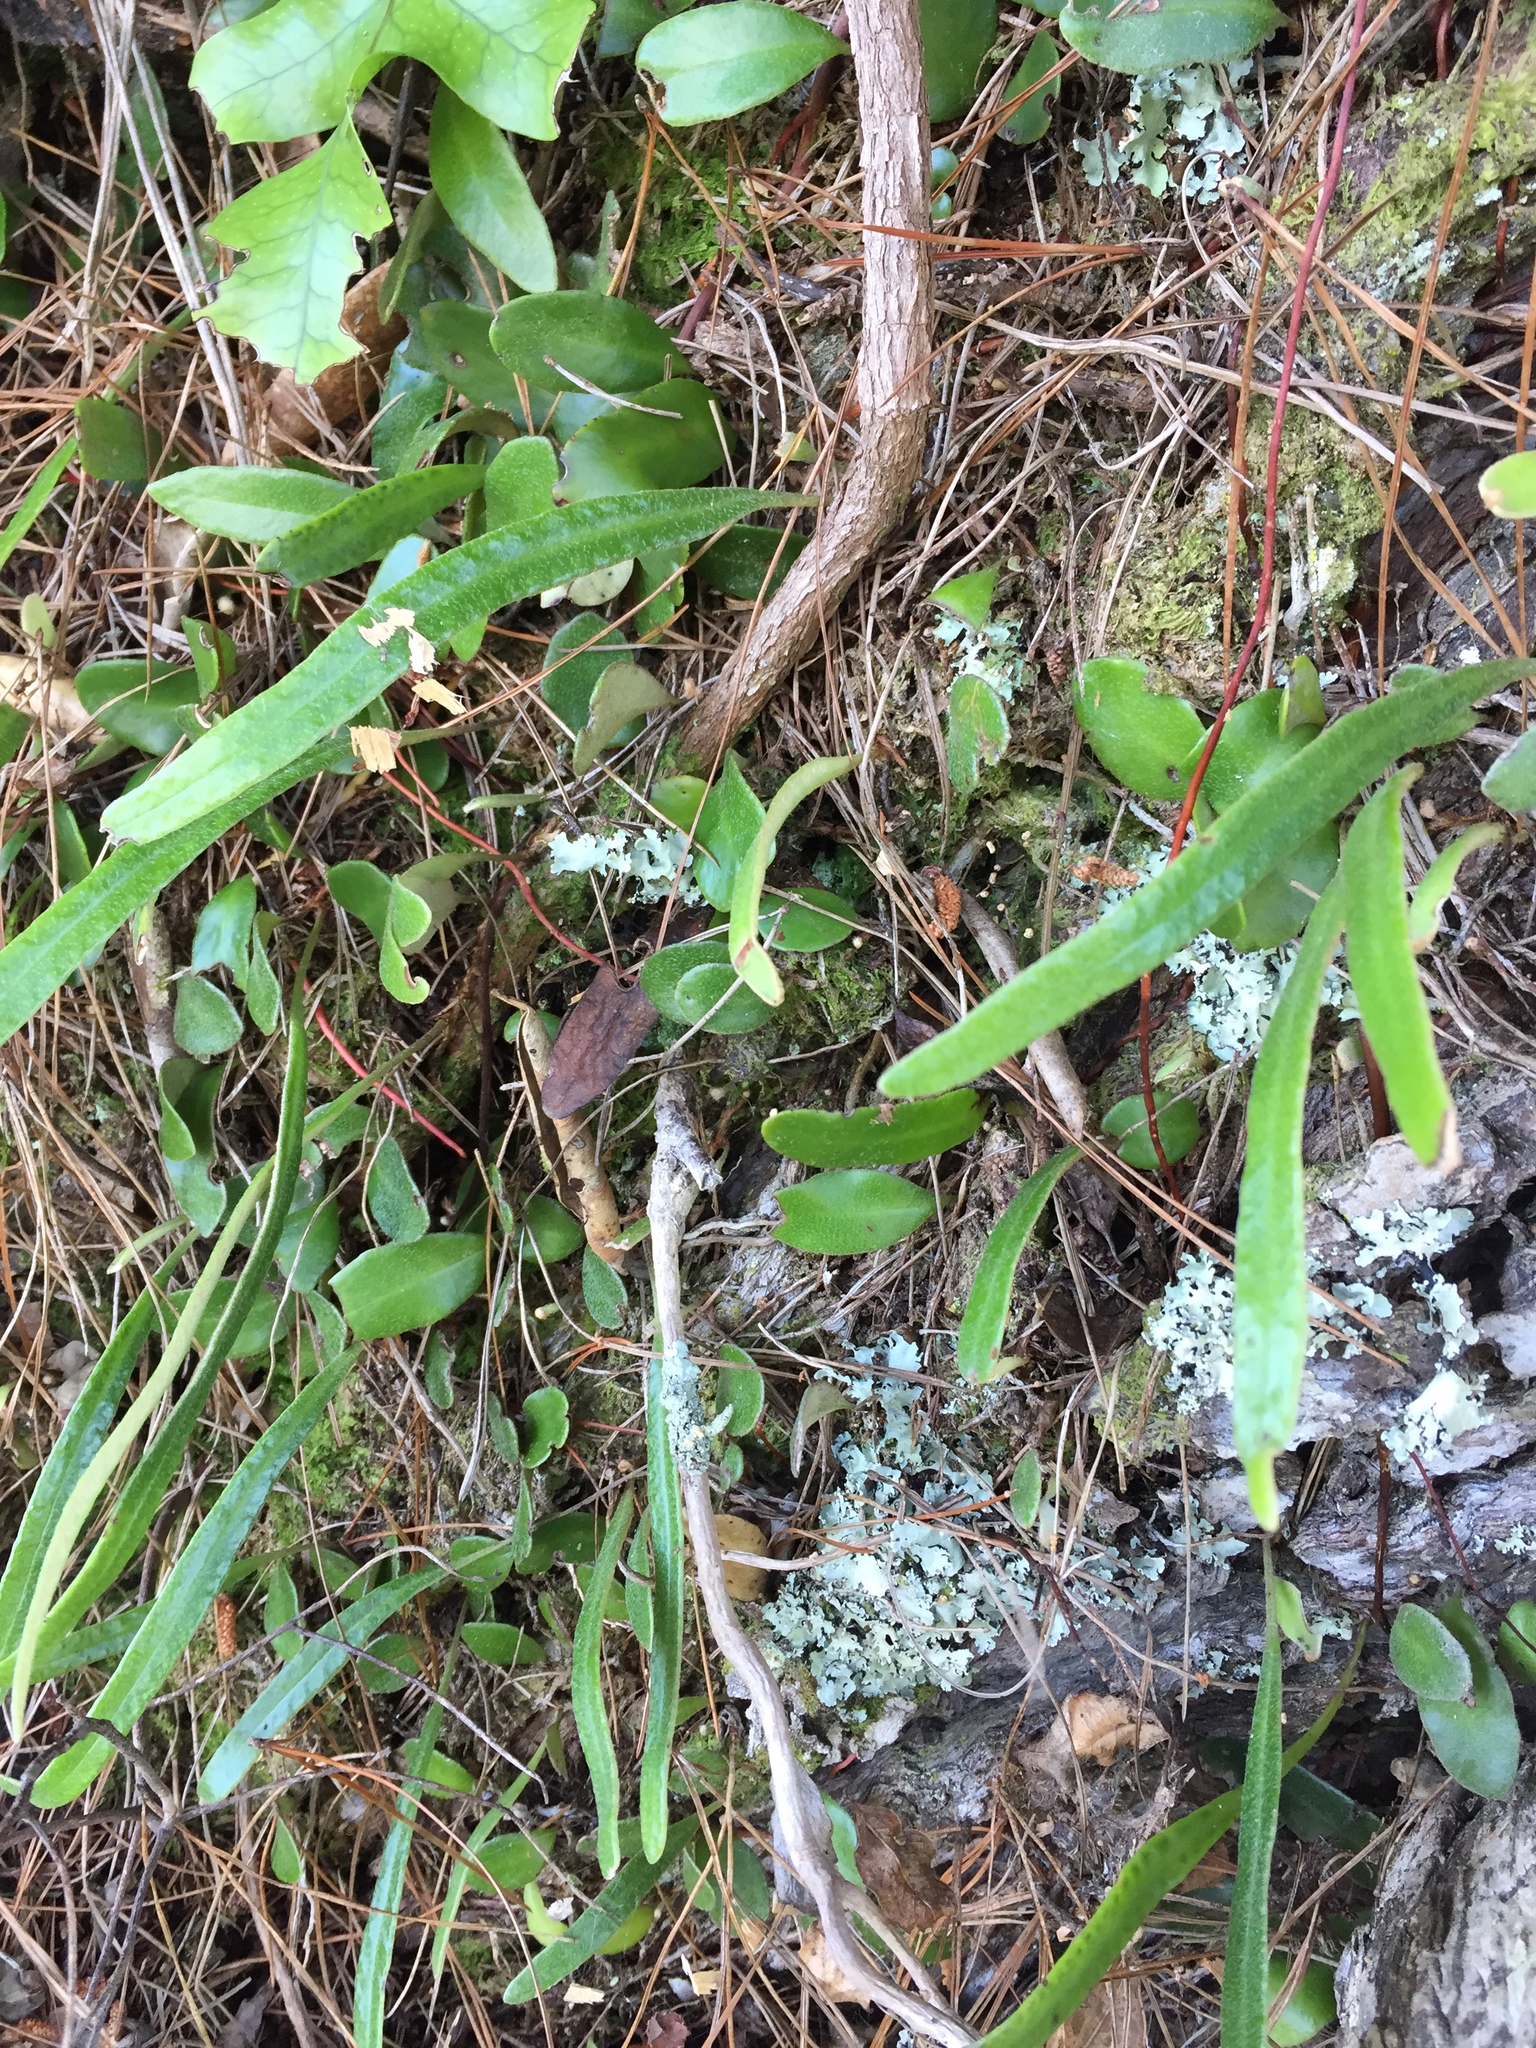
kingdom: Plantae
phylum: Tracheophyta
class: Polypodiopsida
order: Polypodiales
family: Polypodiaceae
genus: Pyrrosia
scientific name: Pyrrosia eleagnifolia
